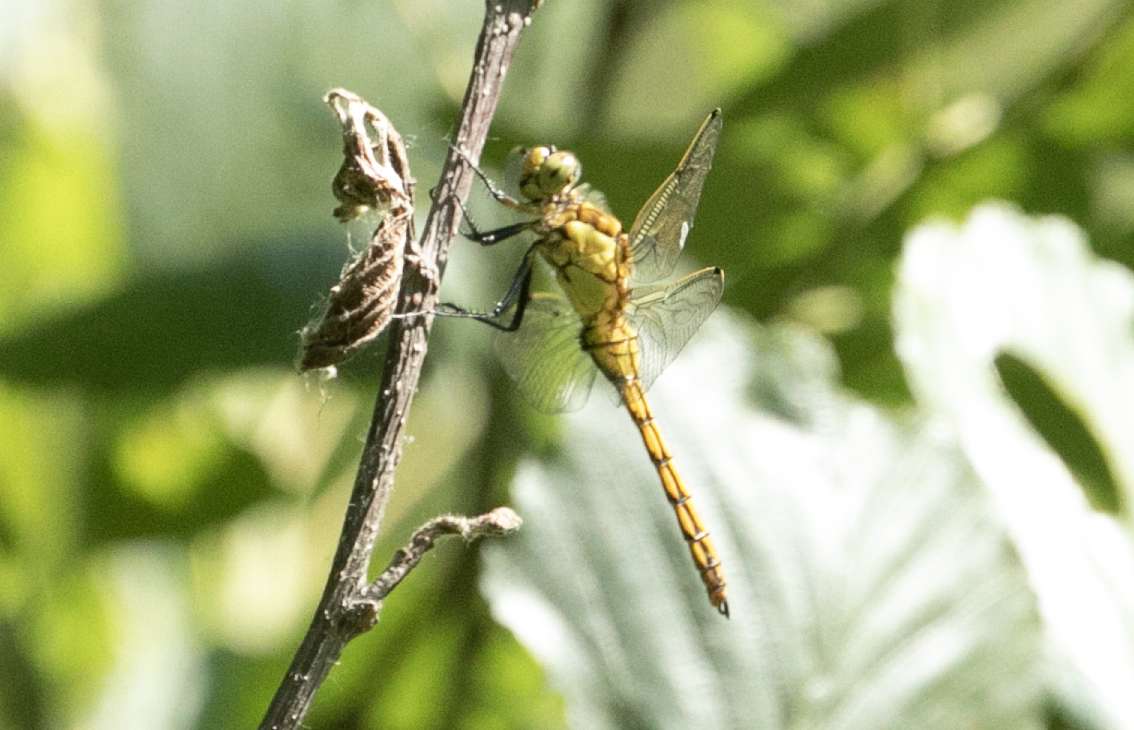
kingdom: Animalia
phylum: Arthropoda
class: Insecta
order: Odonata
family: Libellulidae
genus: Orthetrum
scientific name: Orthetrum cancellatum
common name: Black-tailed skimmer
